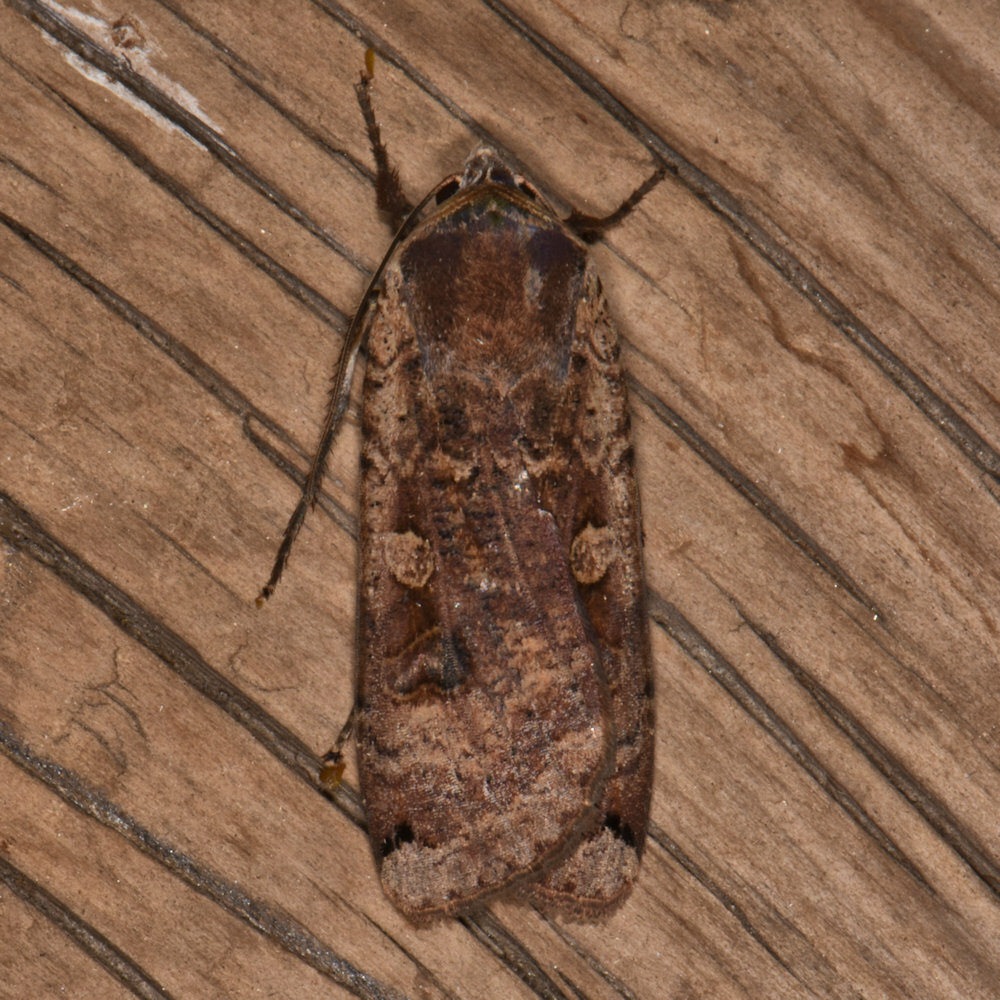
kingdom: Animalia
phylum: Arthropoda
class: Insecta
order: Lepidoptera
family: Noctuidae
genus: Noctua
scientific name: Noctua pronuba
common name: Large yellow underwing
